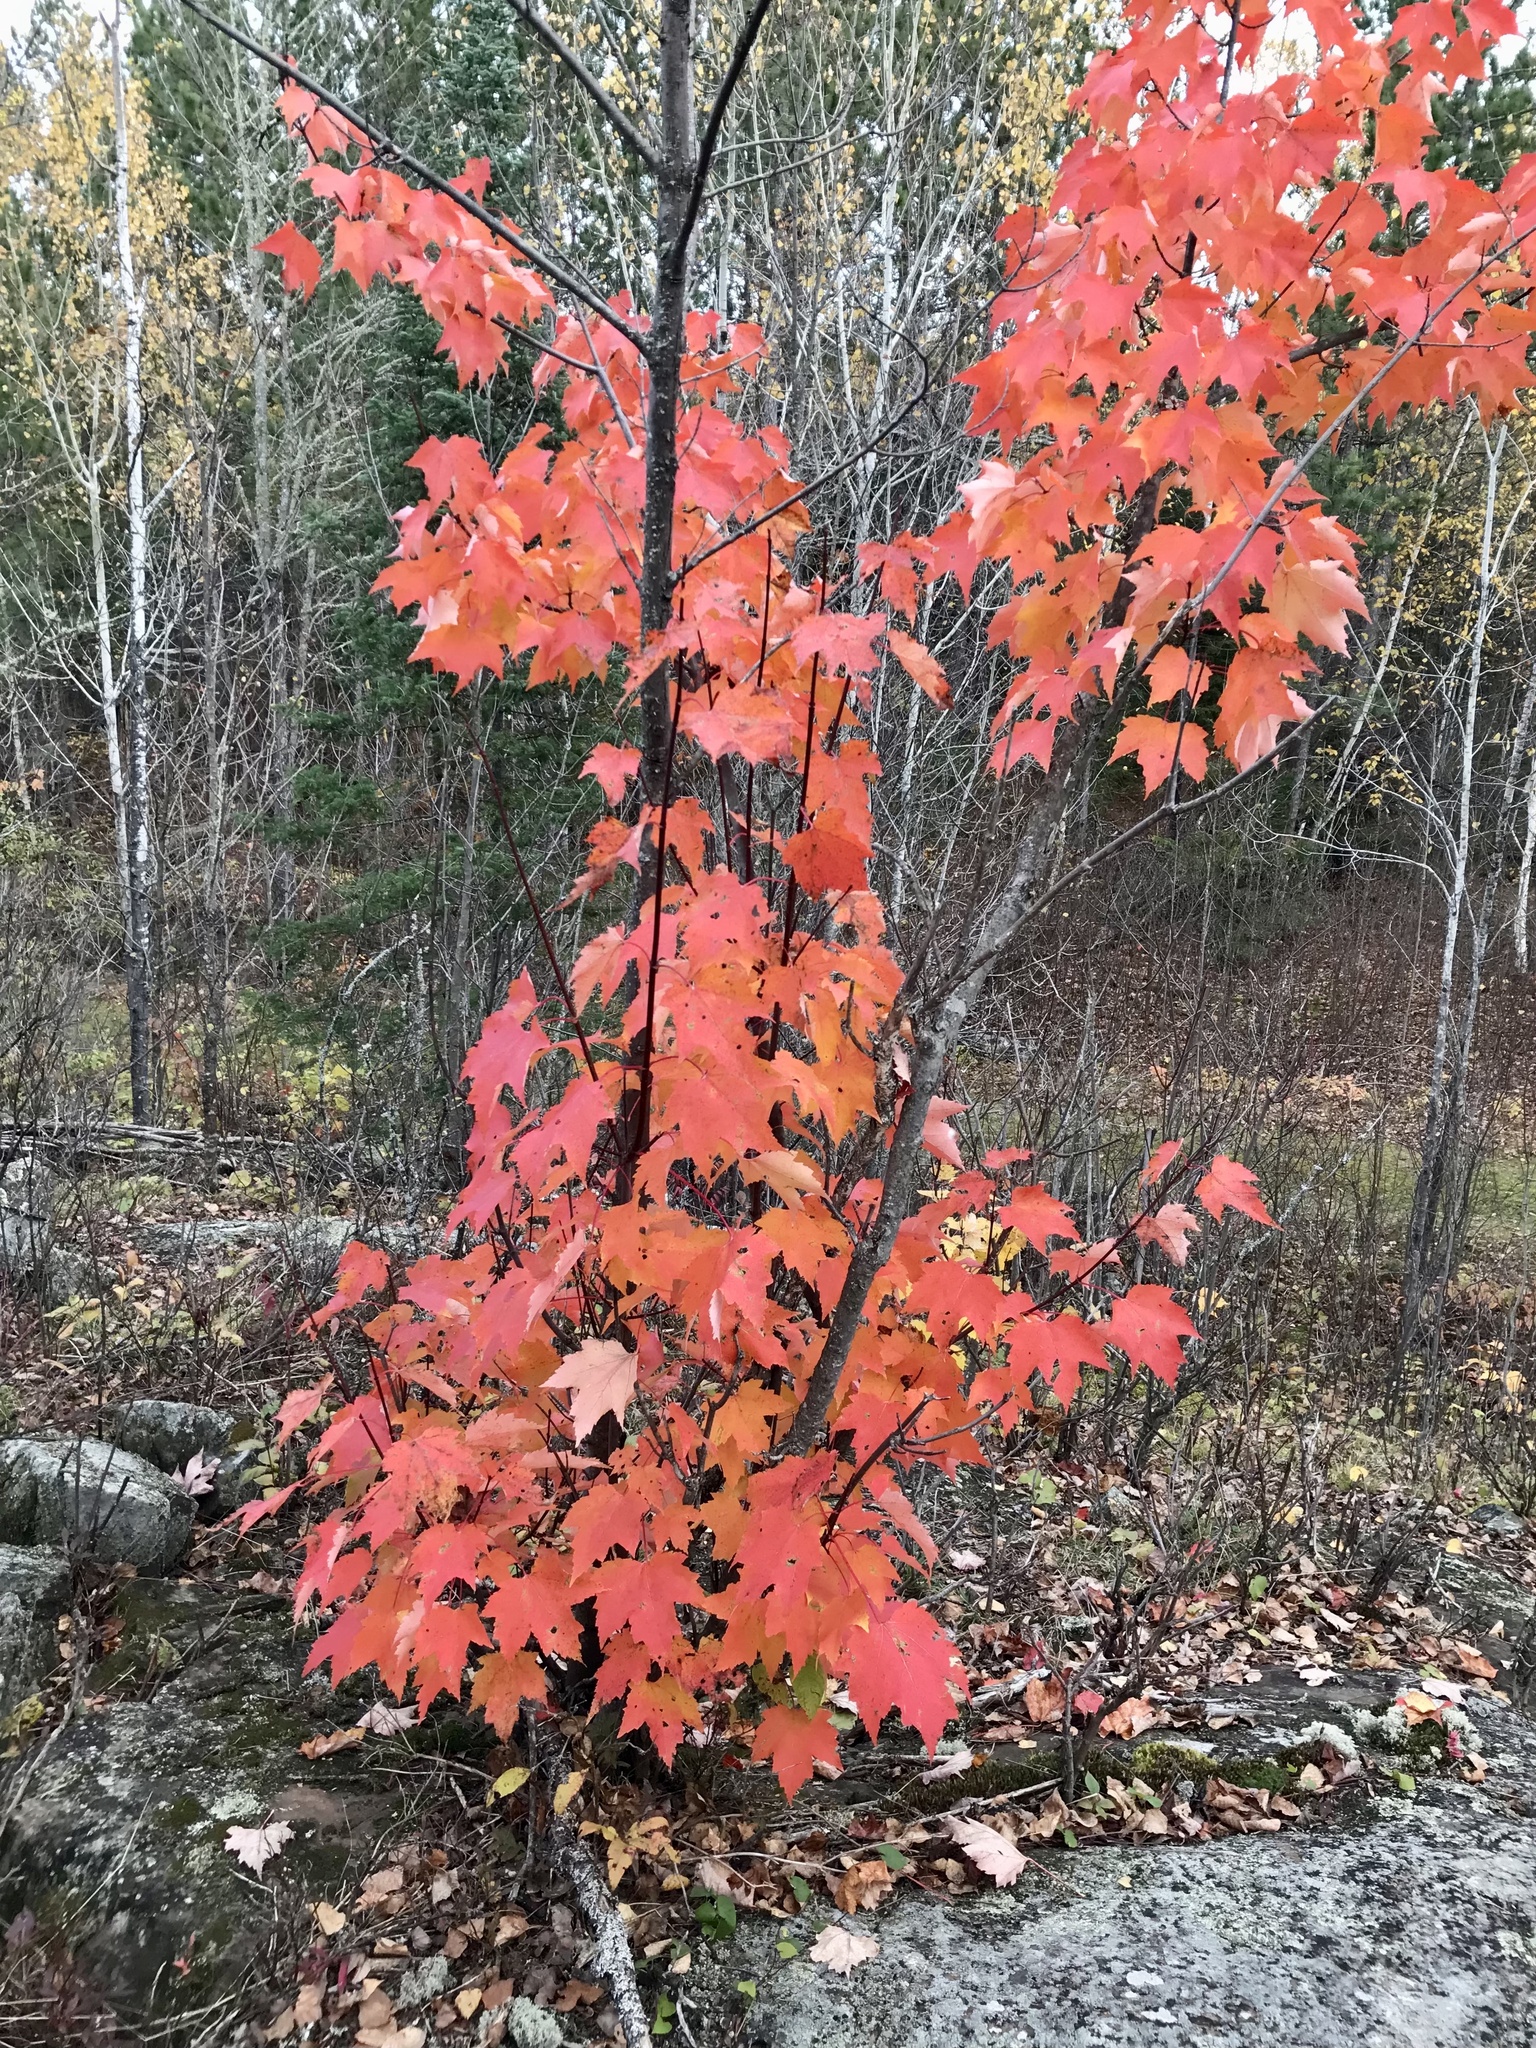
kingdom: Plantae
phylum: Tracheophyta
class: Magnoliopsida
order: Sapindales
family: Sapindaceae
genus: Acer
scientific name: Acer rubrum
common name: Red maple
